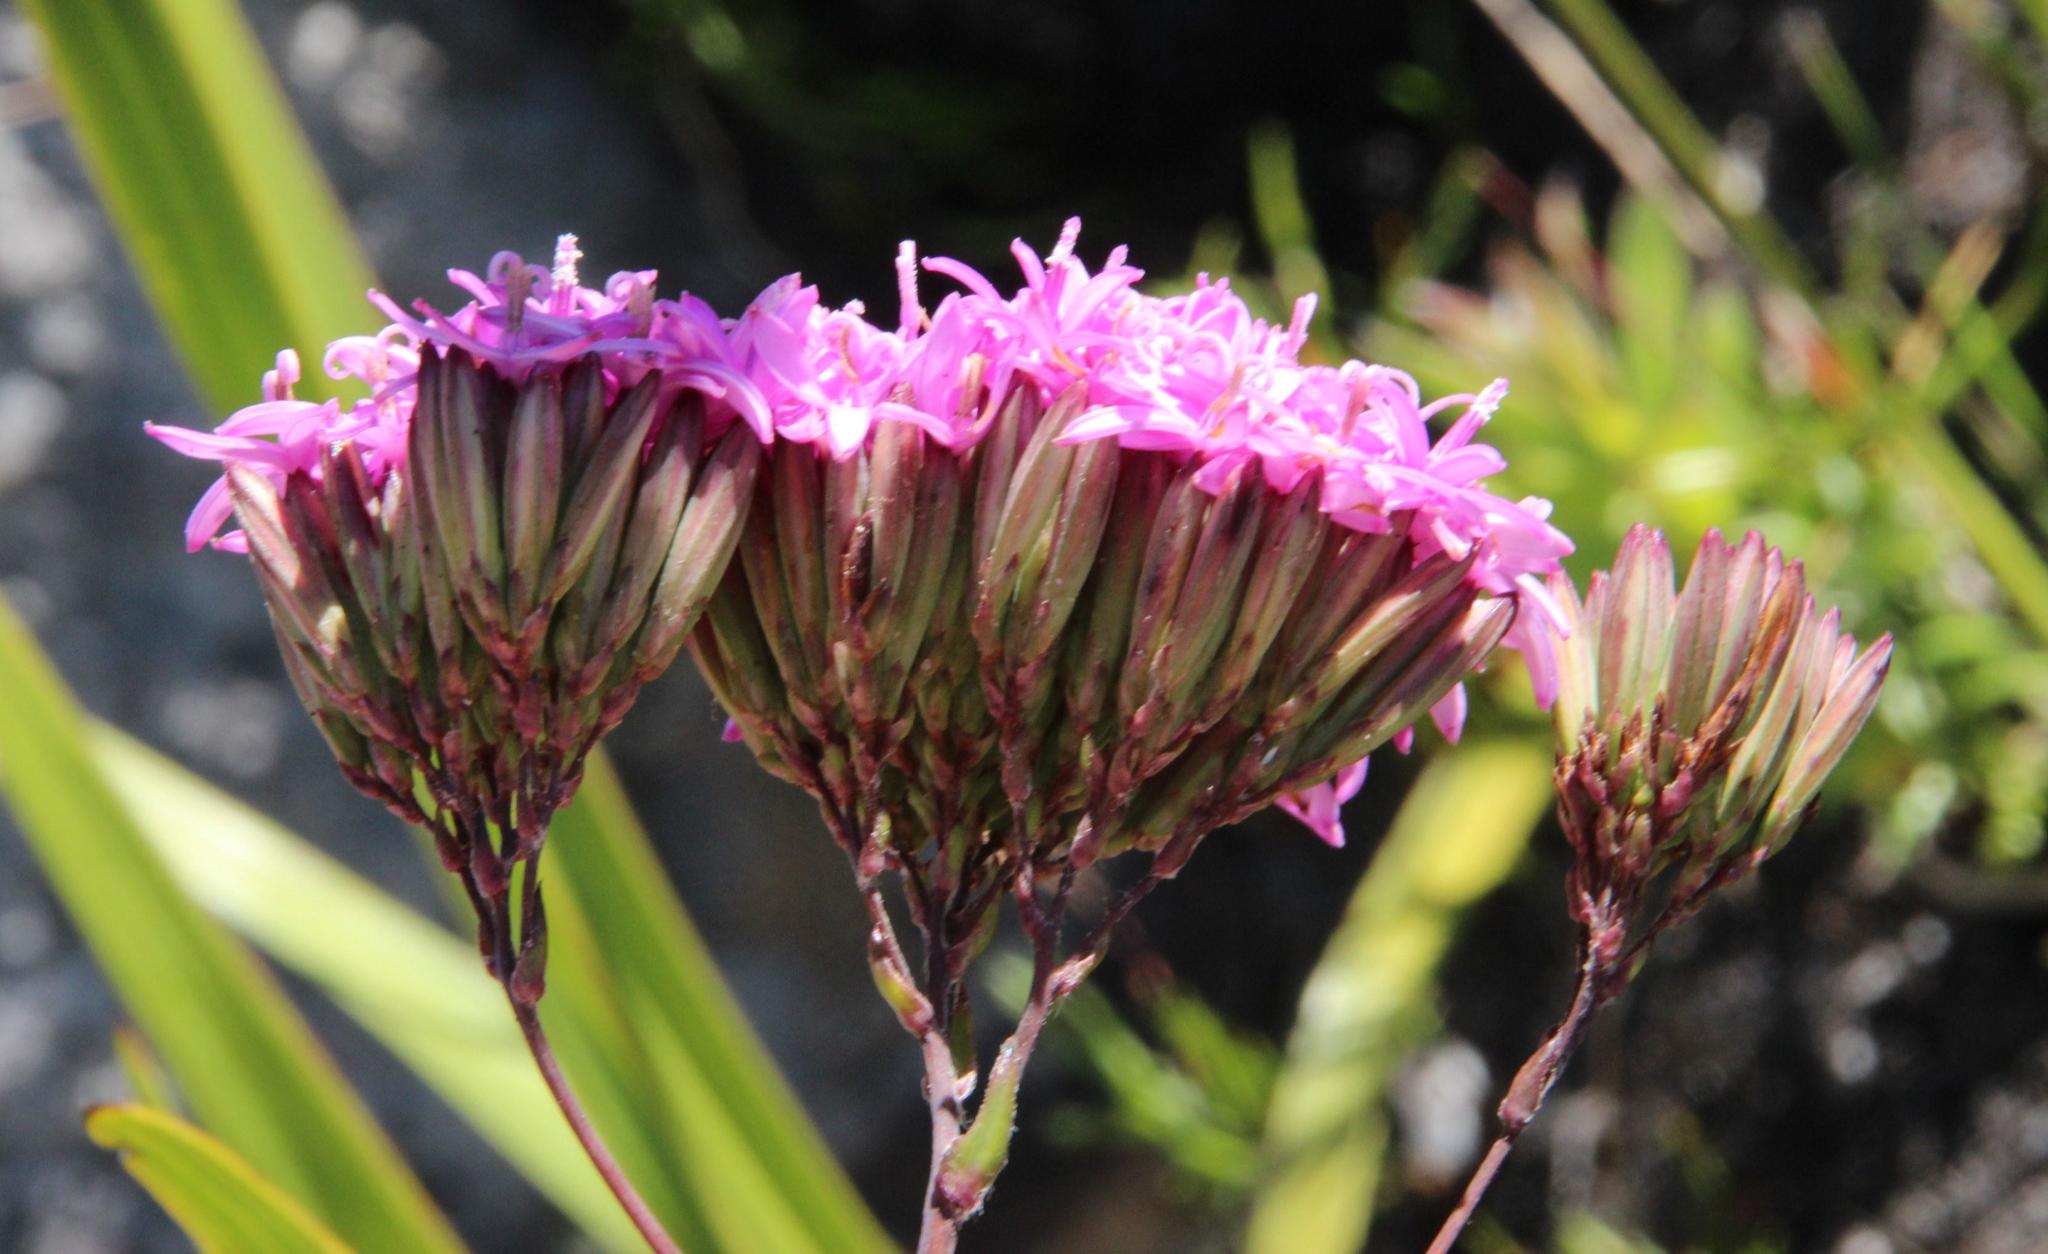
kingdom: Plantae
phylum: Tracheophyta
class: Magnoliopsida
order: Asterales
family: Asteraceae
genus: Corymbium
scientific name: Corymbium glabrum
